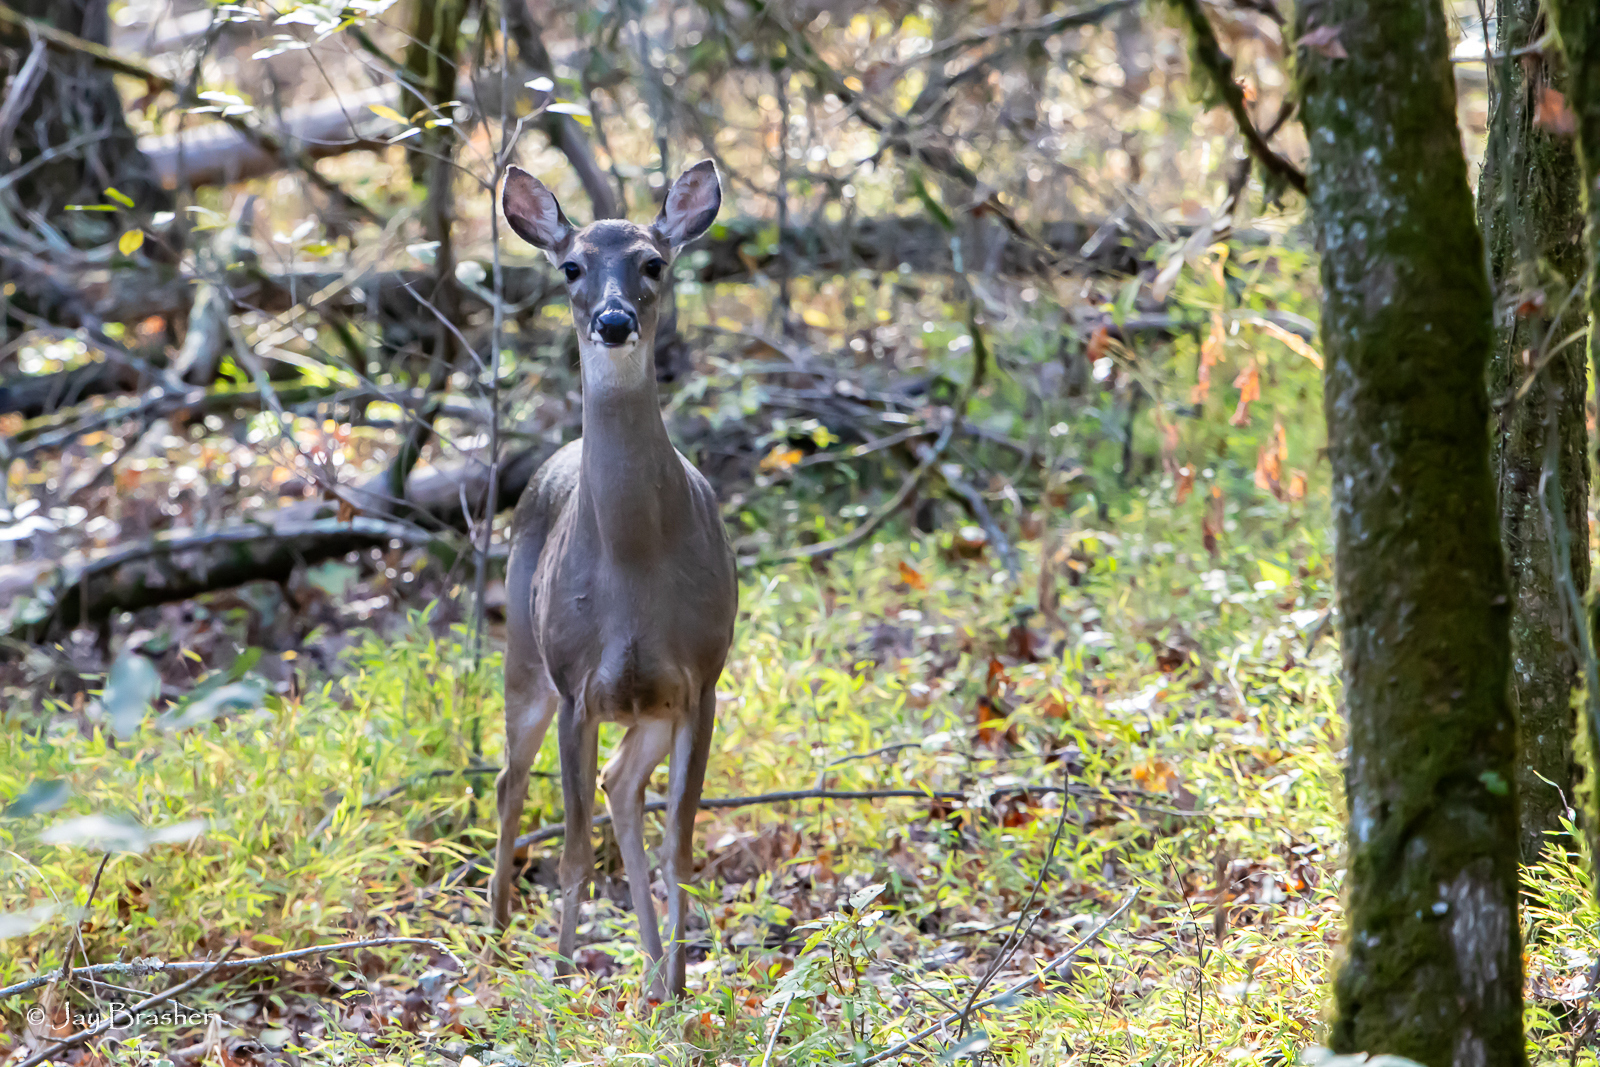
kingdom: Animalia
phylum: Chordata
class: Mammalia
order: Artiodactyla
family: Cervidae
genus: Odocoileus
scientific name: Odocoileus virginianus
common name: White-tailed deer
